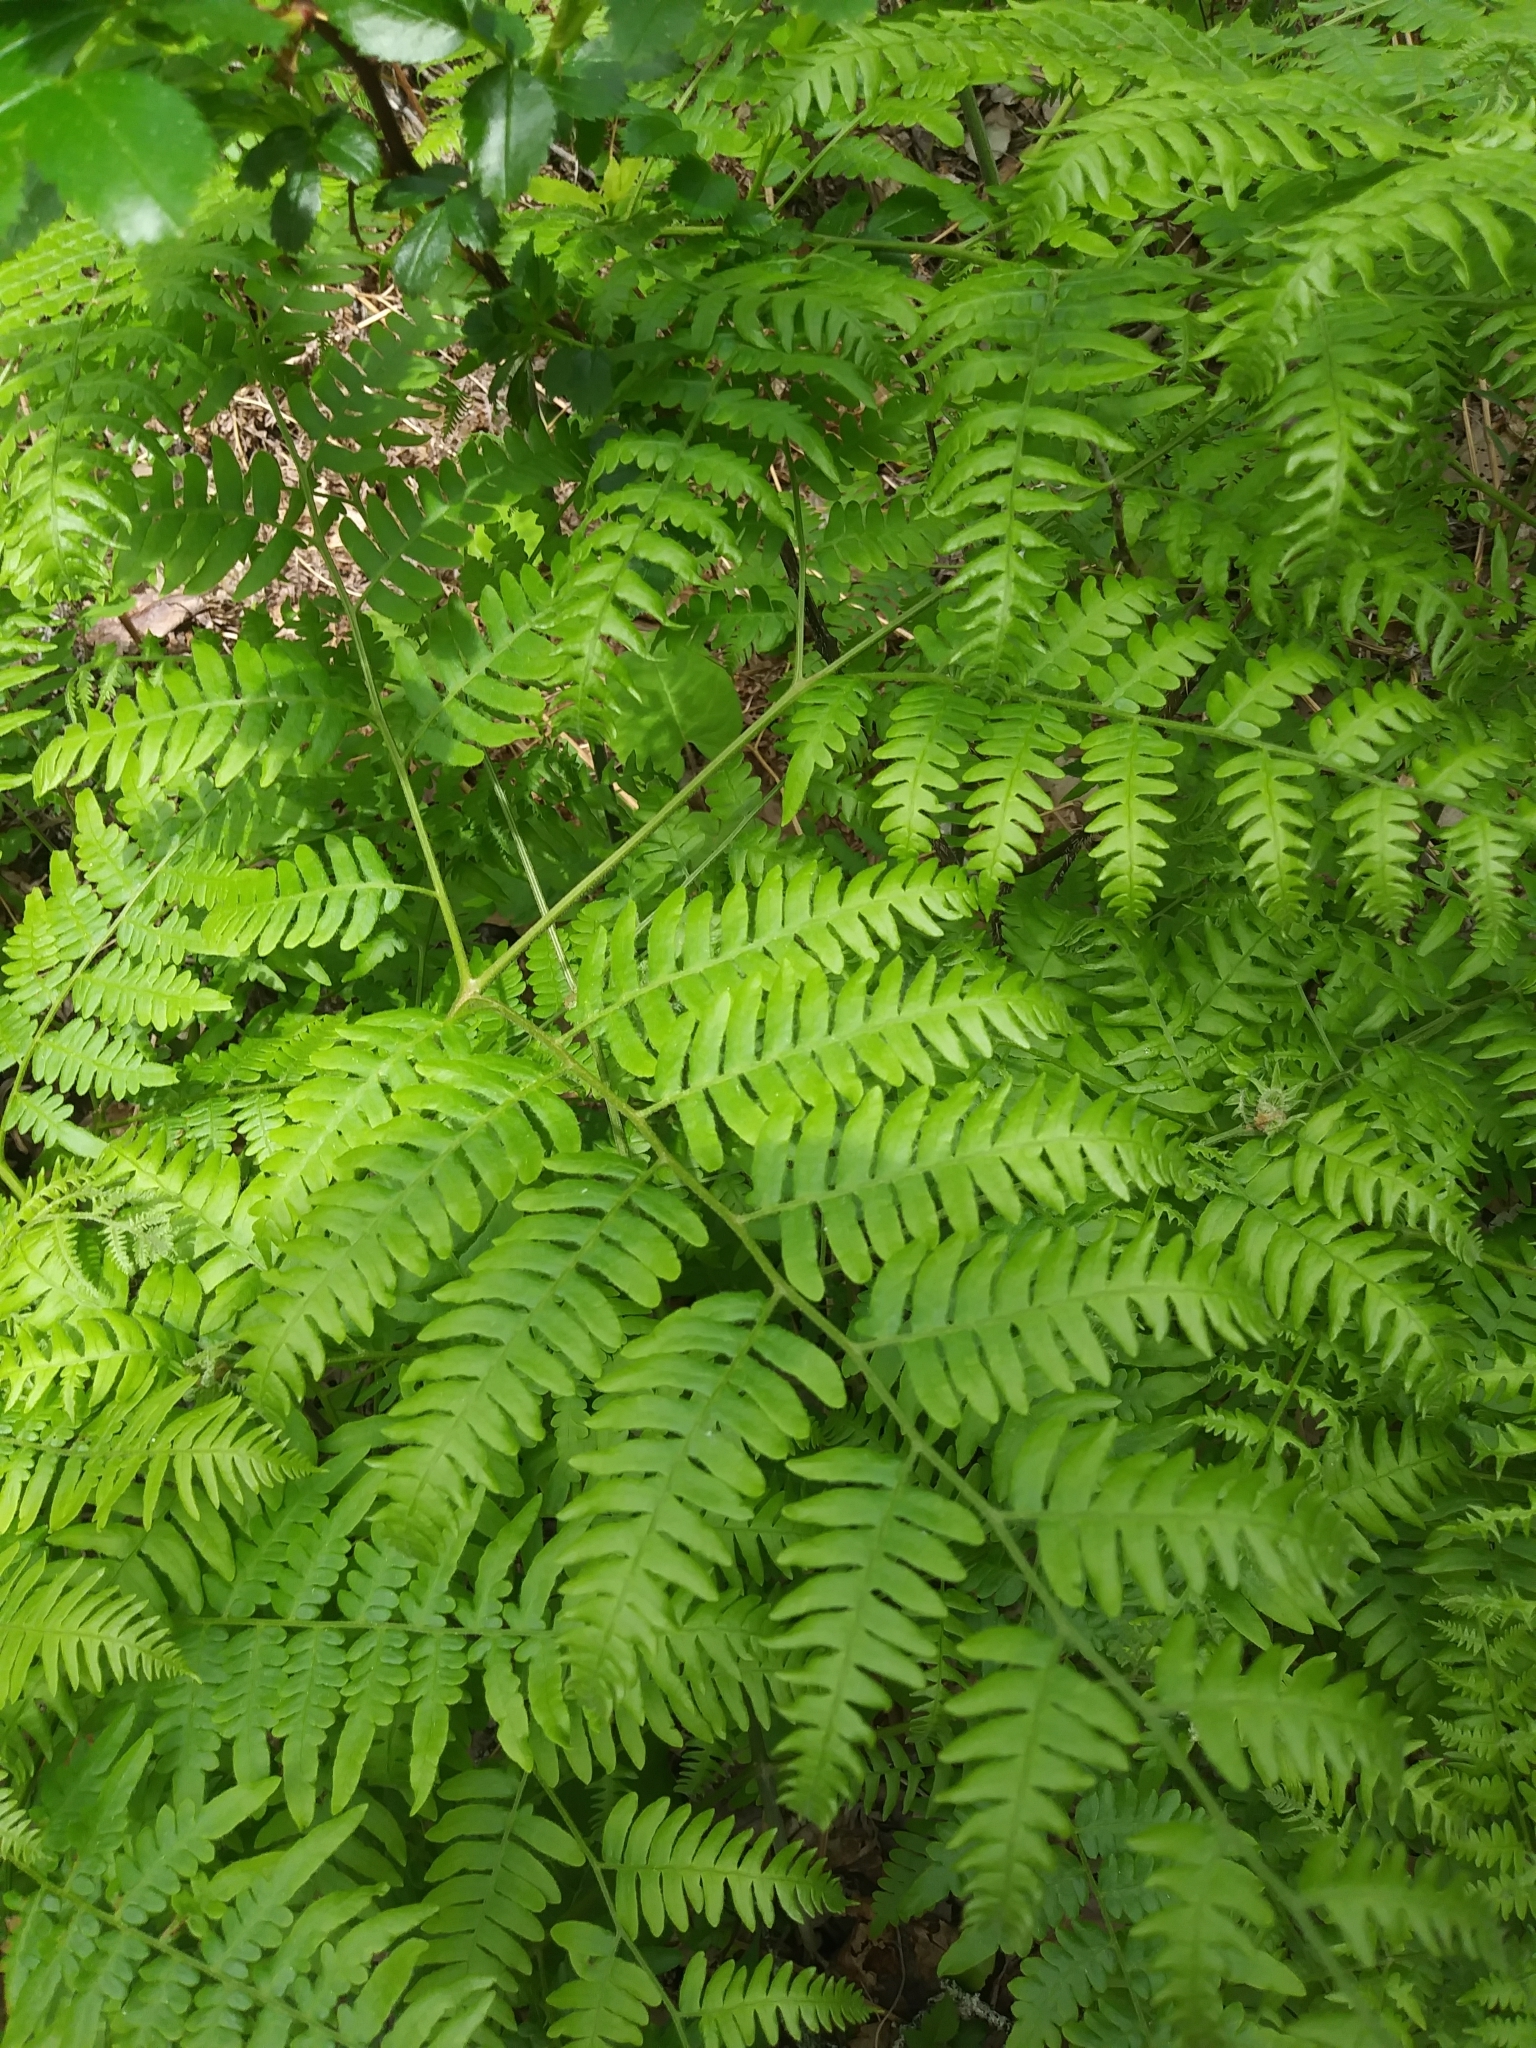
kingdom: Plantae
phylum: Tracheophyta
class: Polypodiopsida
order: Polypodiales
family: Dennstaedtiaceae
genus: Pteridium
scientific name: Pteridium aquilinum
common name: Bracken
